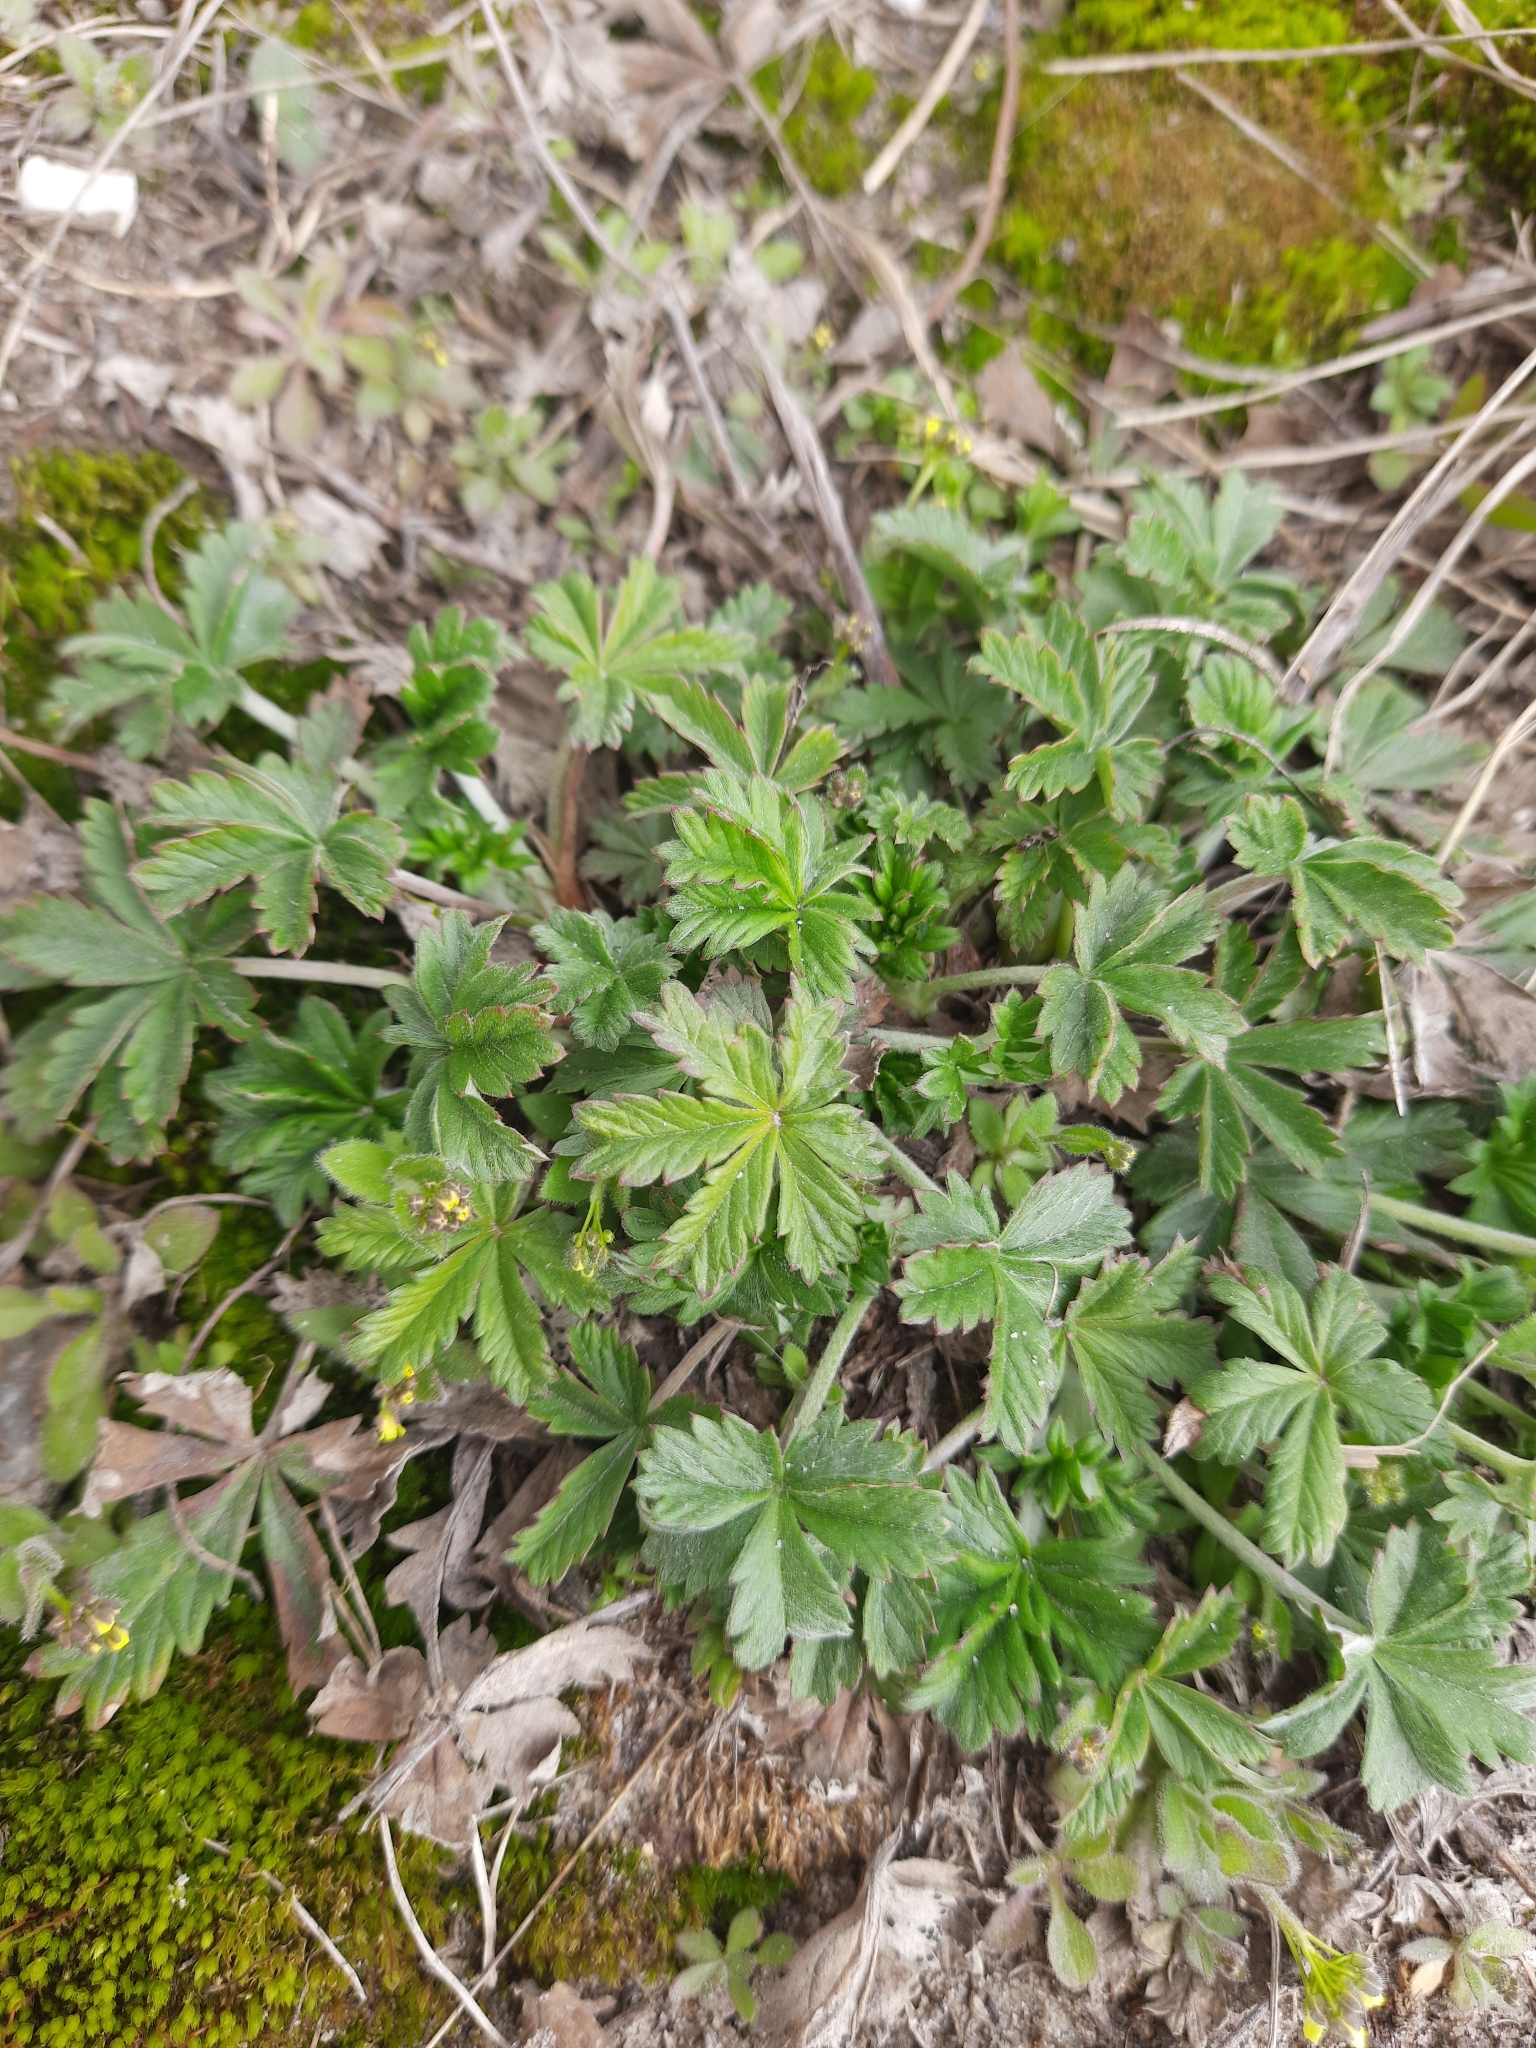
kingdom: Plantae
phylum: Tracheophyta
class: Magnoliopsida
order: Rosales
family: Rosaceae
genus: Potentilla
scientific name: Potentilla argentea
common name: Hoary cinquefoil
